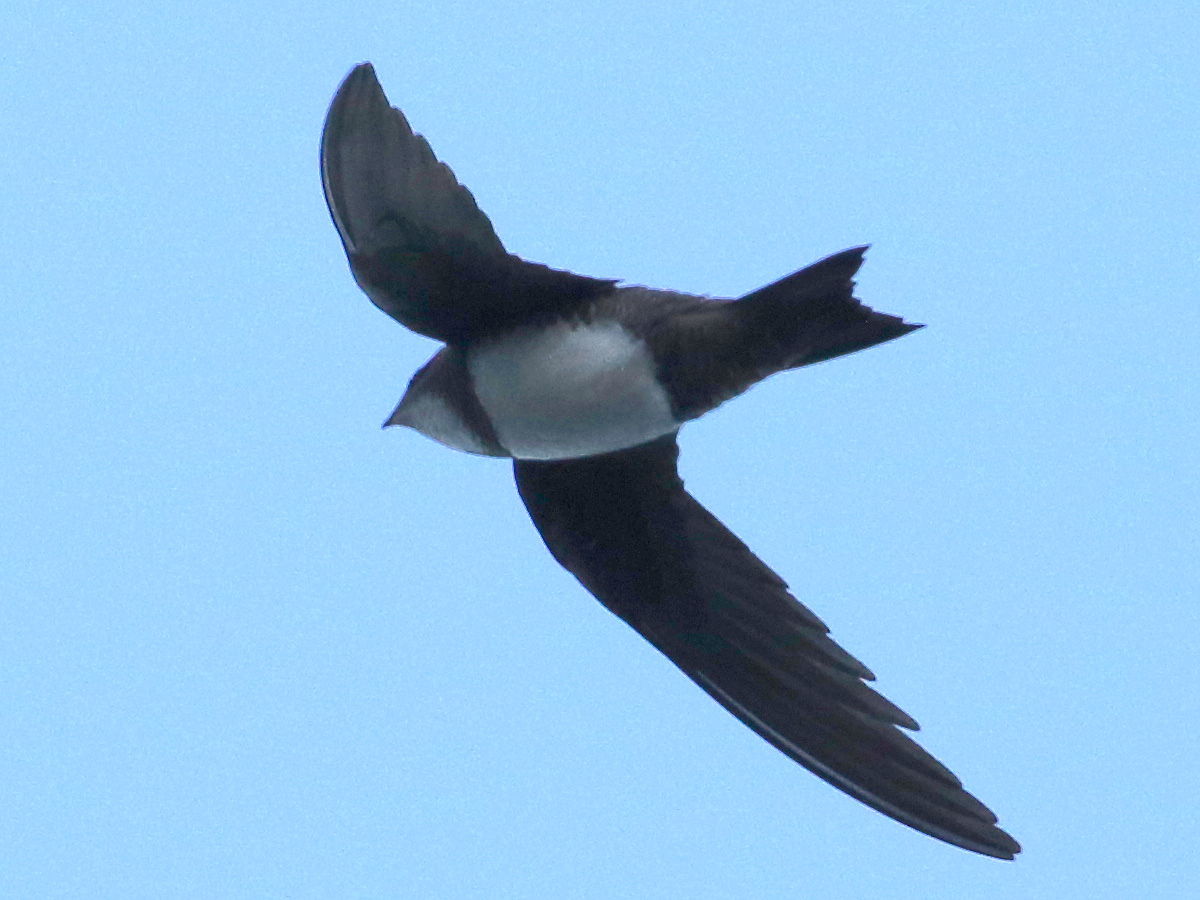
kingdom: Animalia
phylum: Chordata
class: Aves
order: Apodiformes
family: Apodidae
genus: Tachymarptis
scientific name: Tachymarptis melba
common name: Alpine swift
